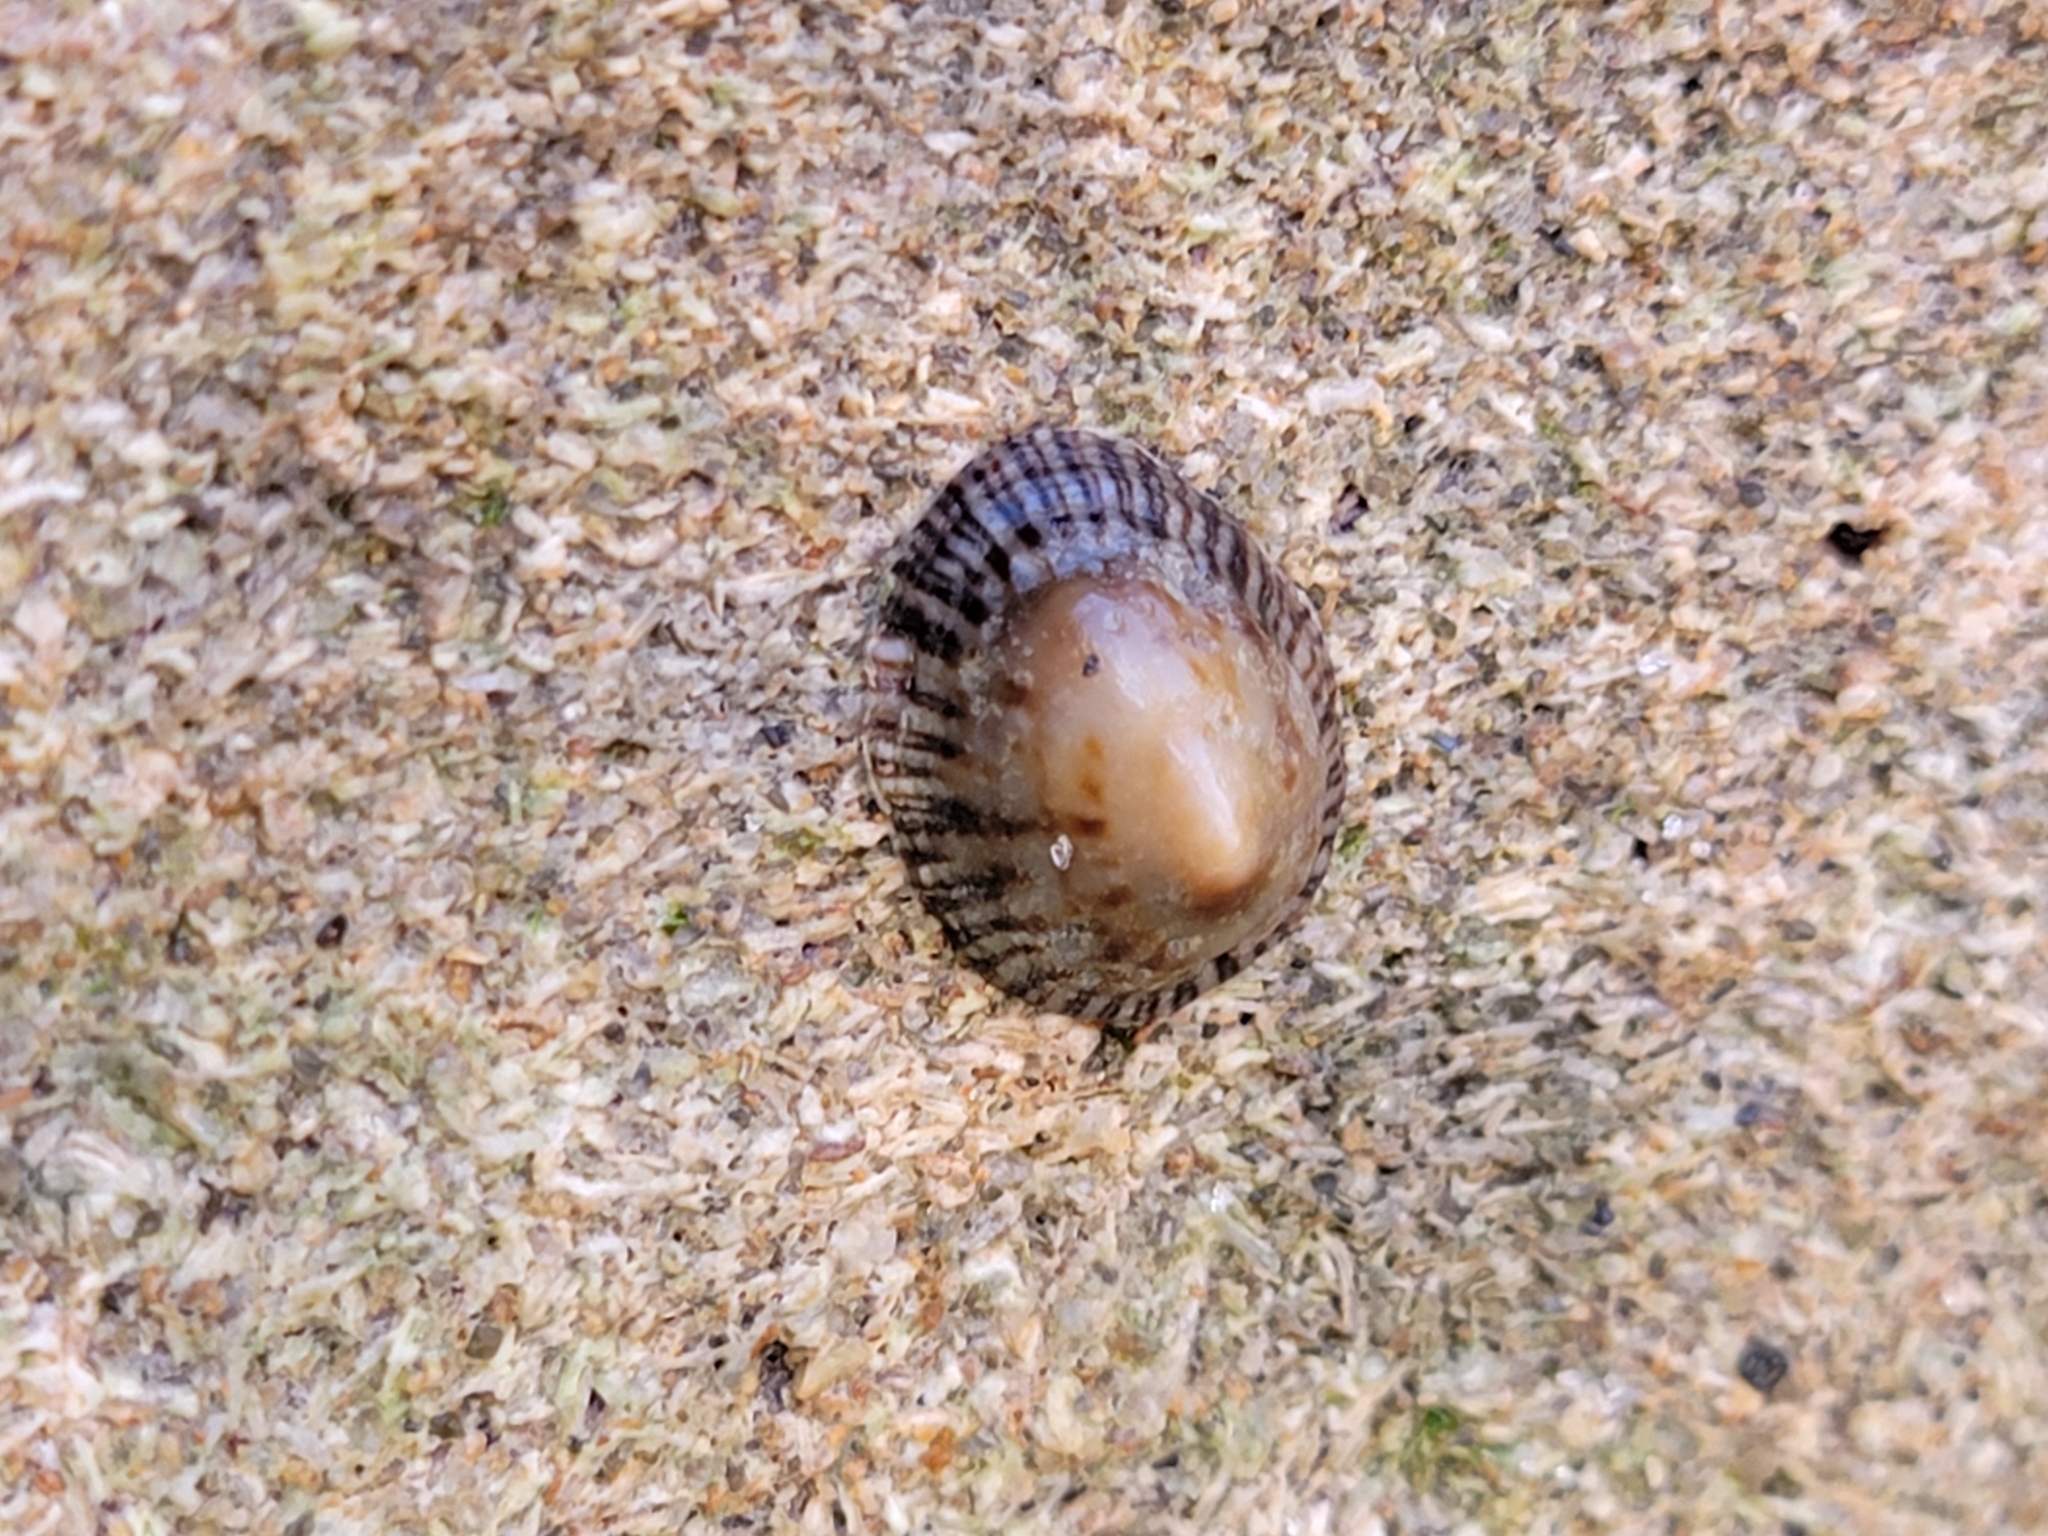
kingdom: Animalia
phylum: Mollusca
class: Gastropoda
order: Siphonariida
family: Siphonariidae
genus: Siphonaria
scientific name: Siphonaria naufragum
